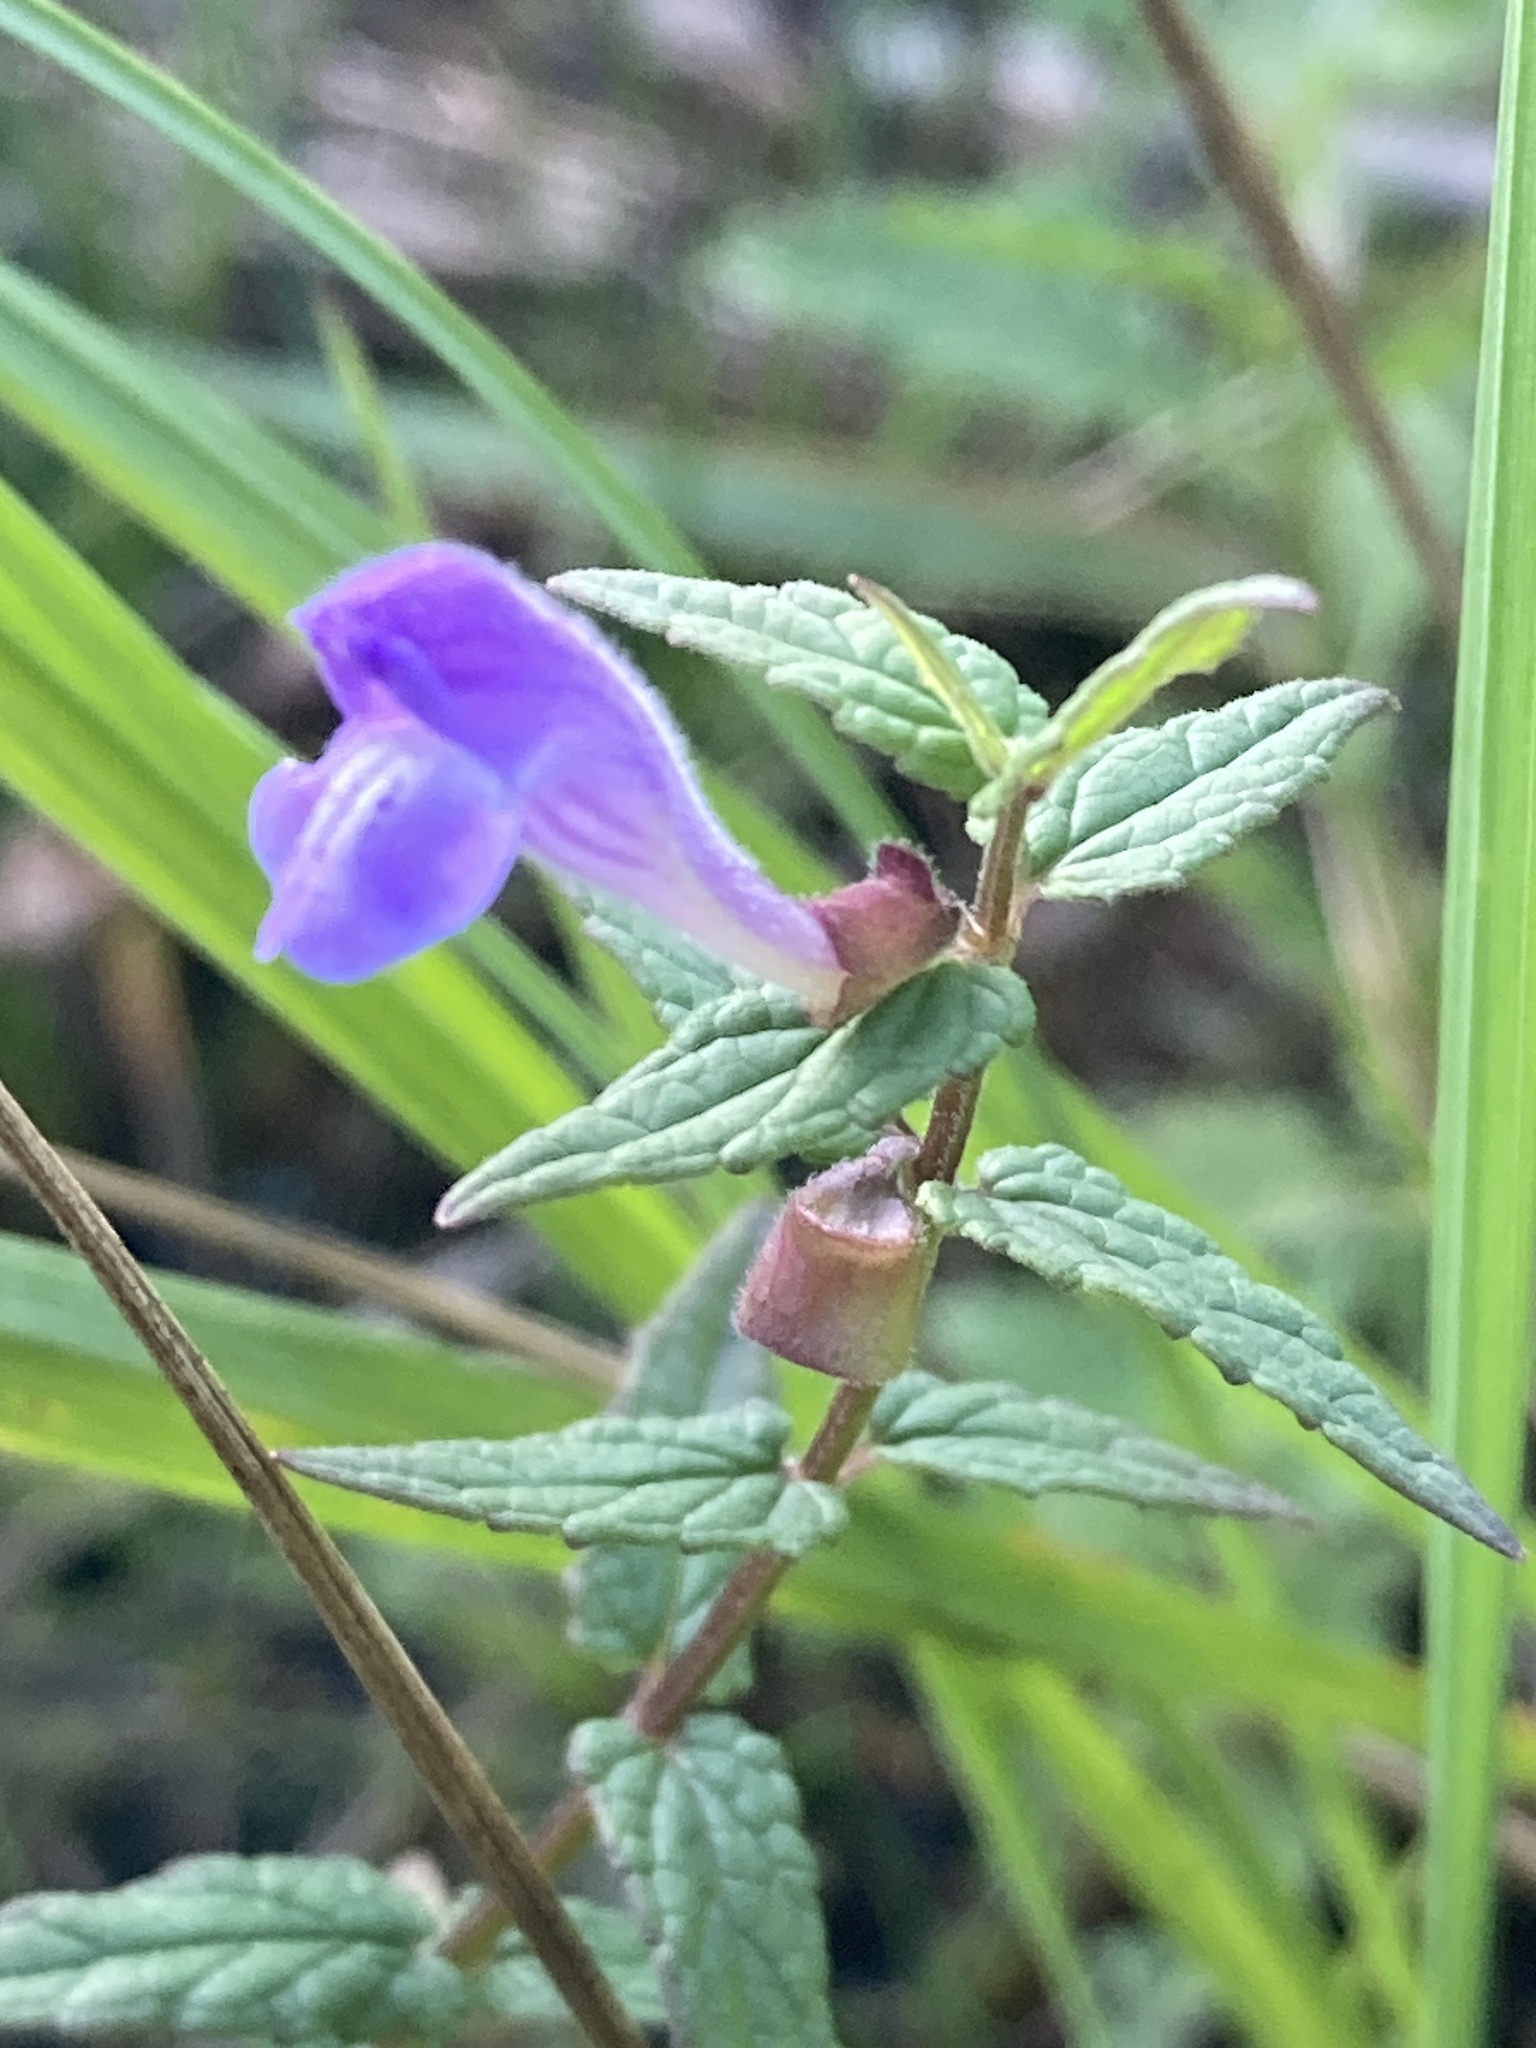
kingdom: Plantae
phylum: Tracheophyta
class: Magnoliopsida
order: Lamiales
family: Lamiaceae
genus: Scutellaria
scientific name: Scutellaria galericulata
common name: Skullcap
